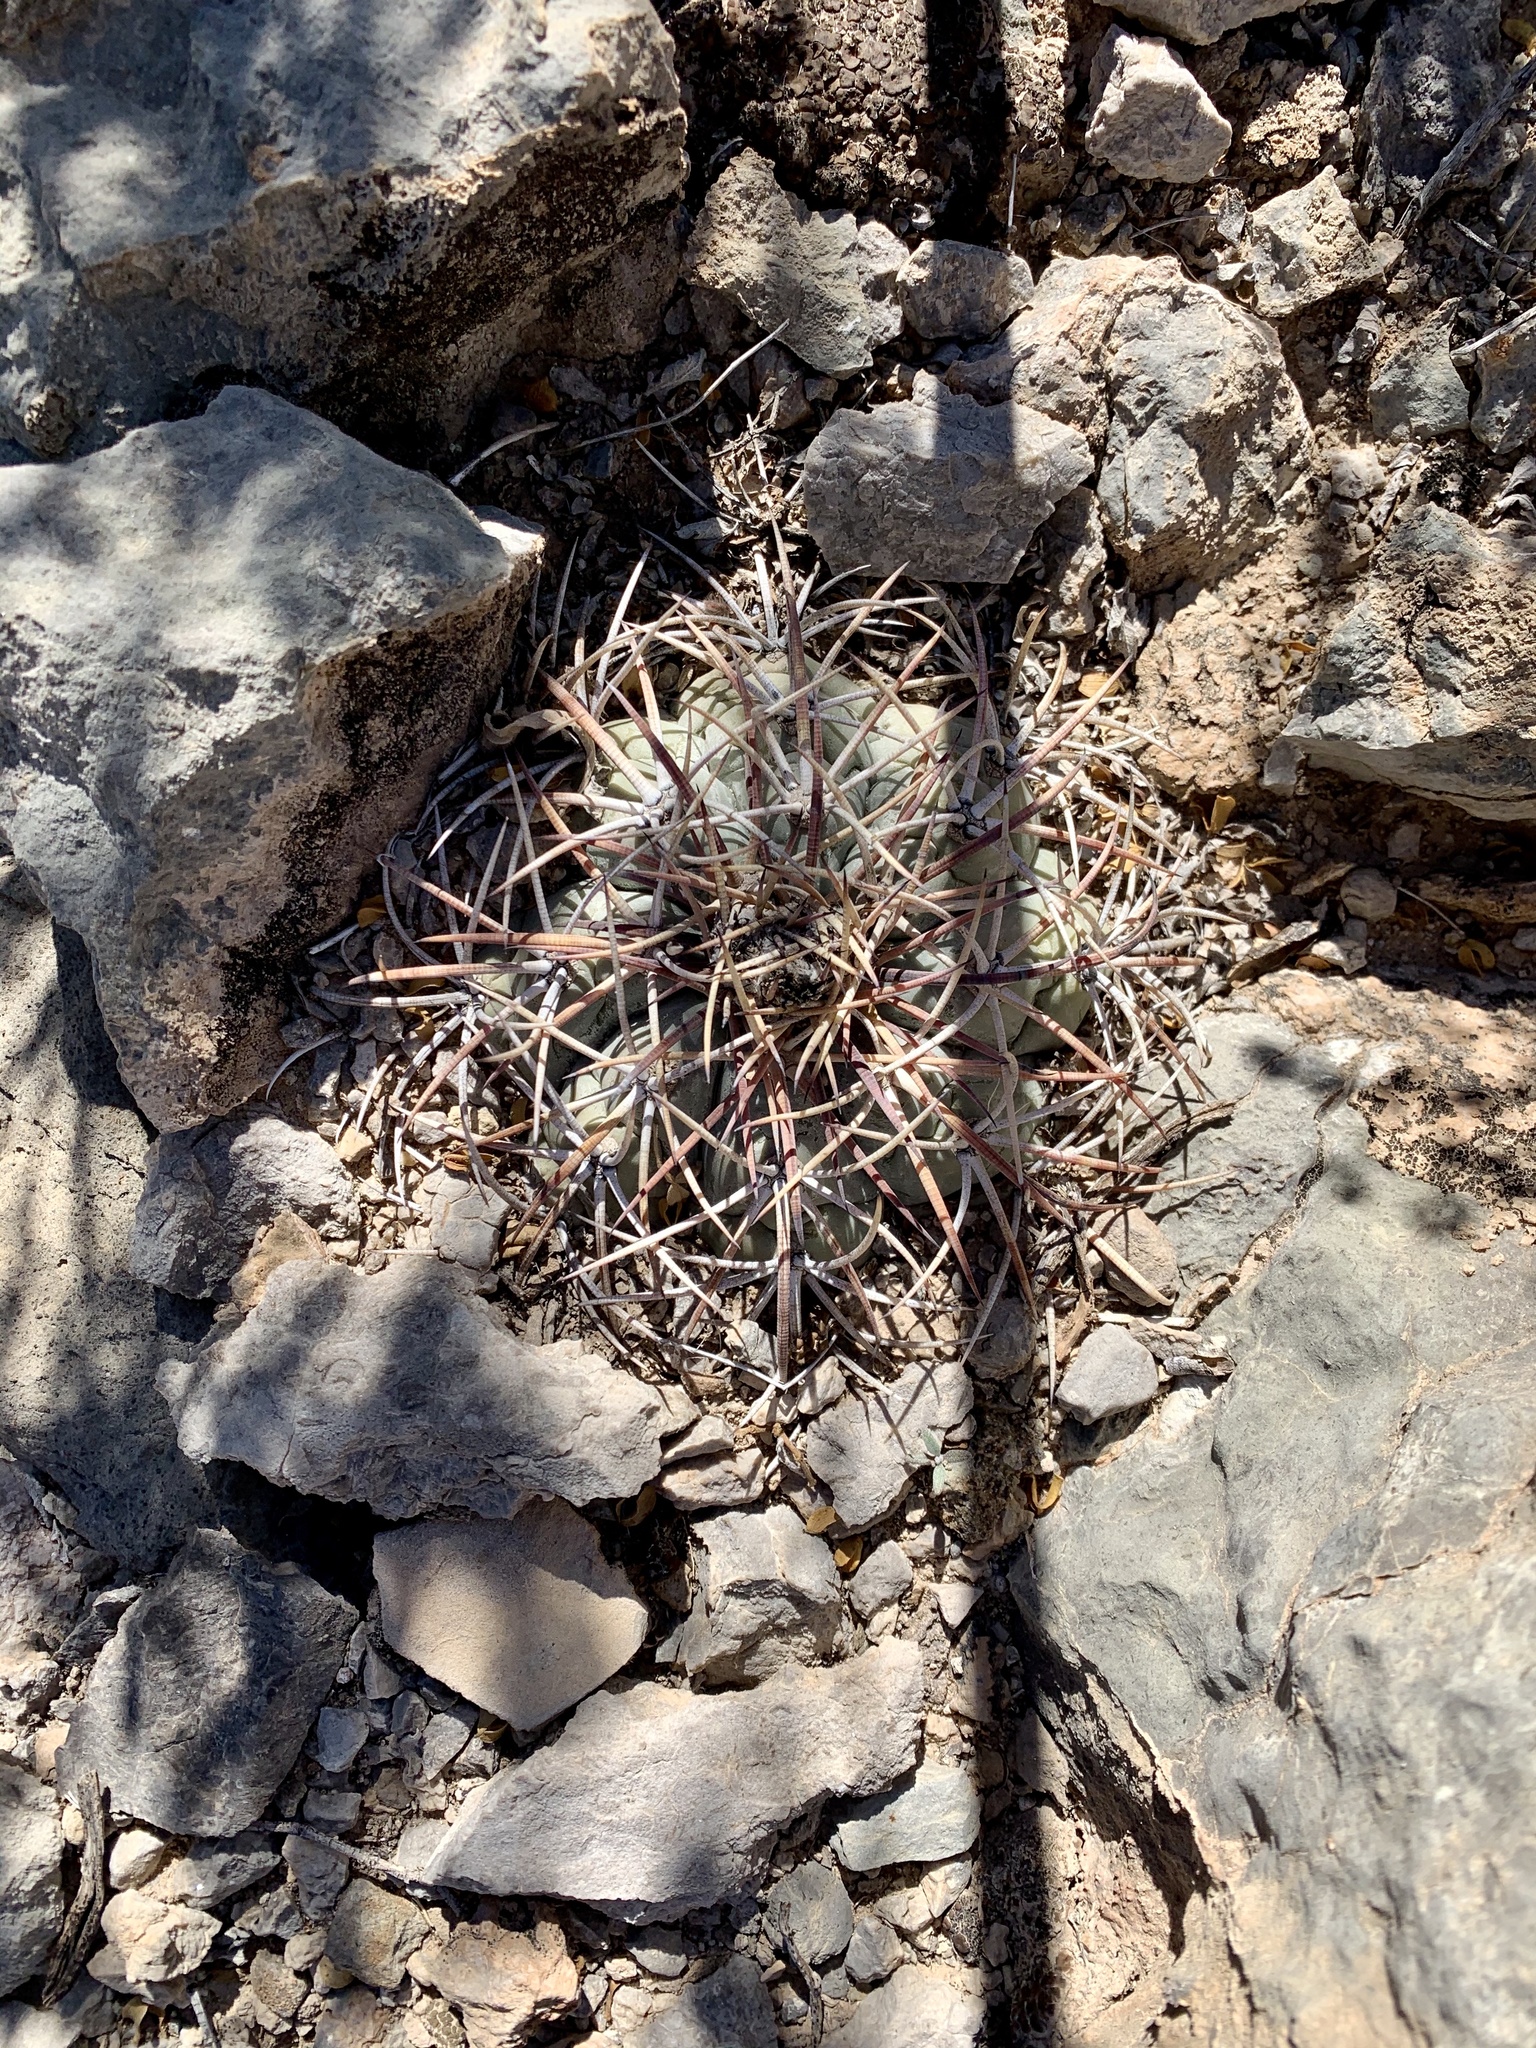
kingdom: Plantae
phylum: Tracheophyta
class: Magnoliopsida
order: Caryophyllales
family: Cactaceae
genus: Echinocactus
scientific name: Echinocactus horizonthalonius
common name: Devilshead
